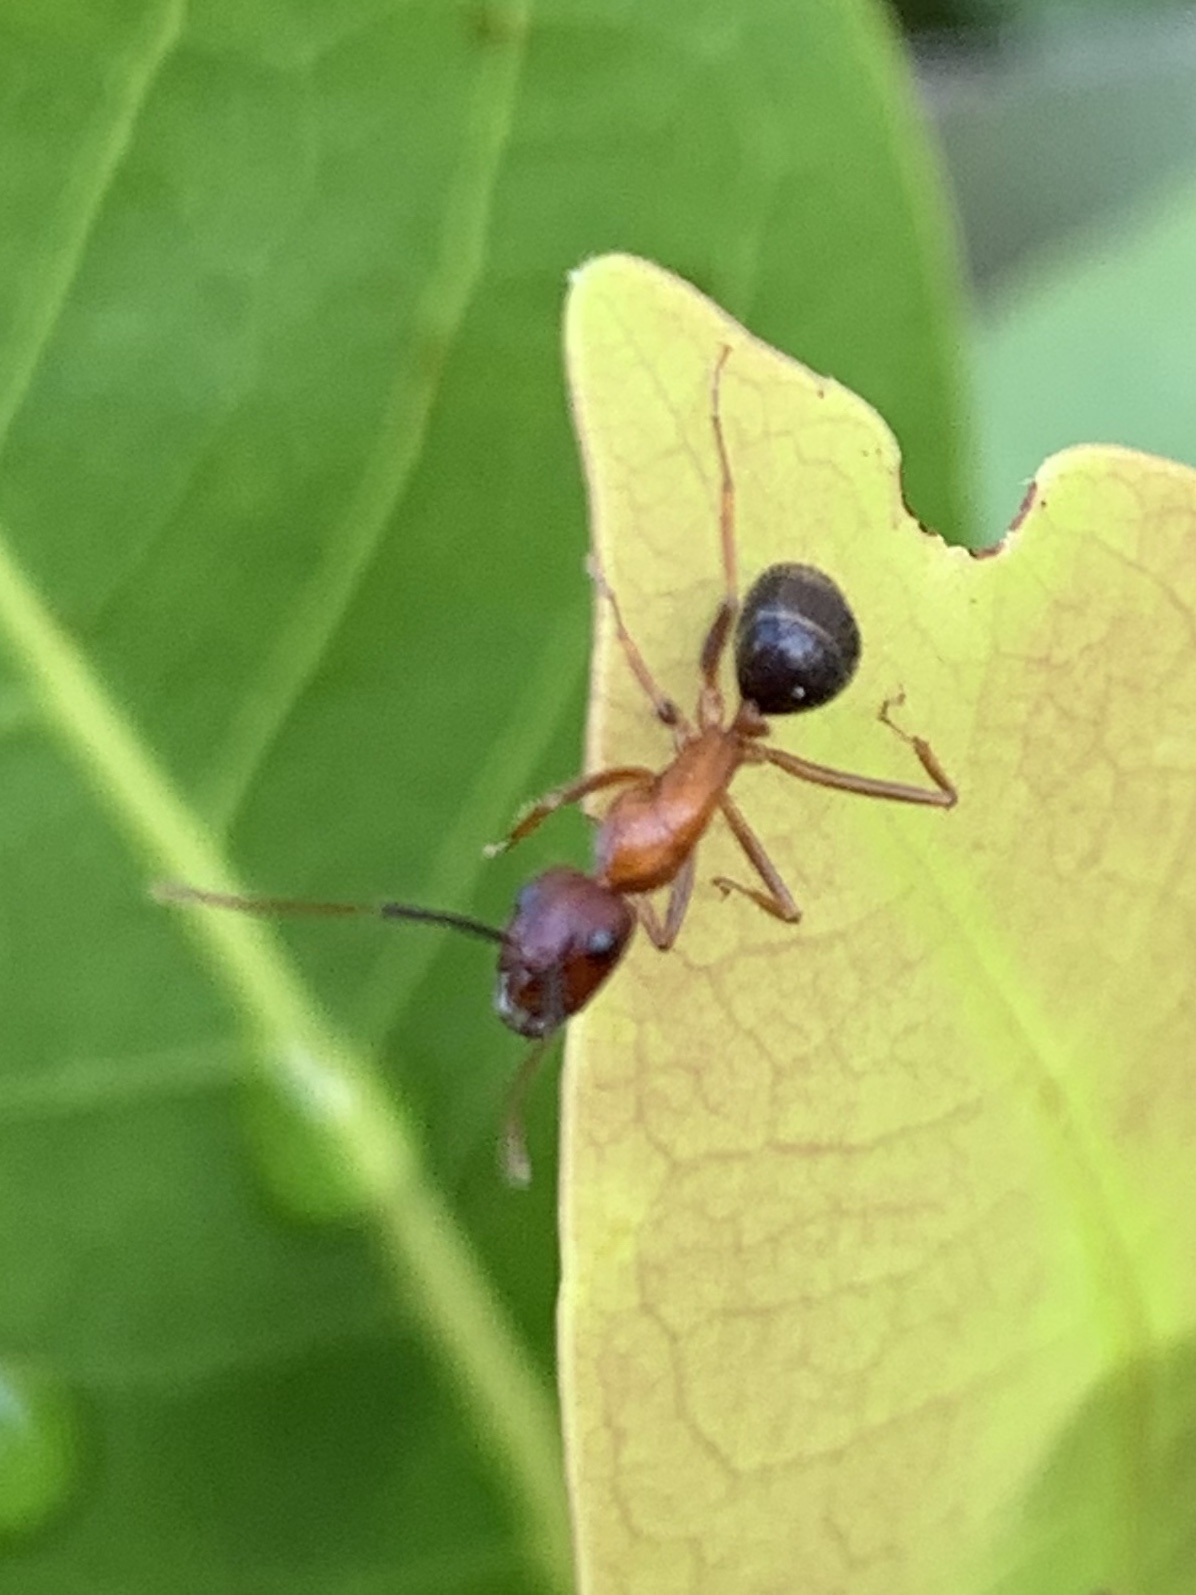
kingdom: Animalia
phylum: Arthropoda
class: Insecta
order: Hymenoptera
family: Formicidae
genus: Camponotus
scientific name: Camponotus floridanus
